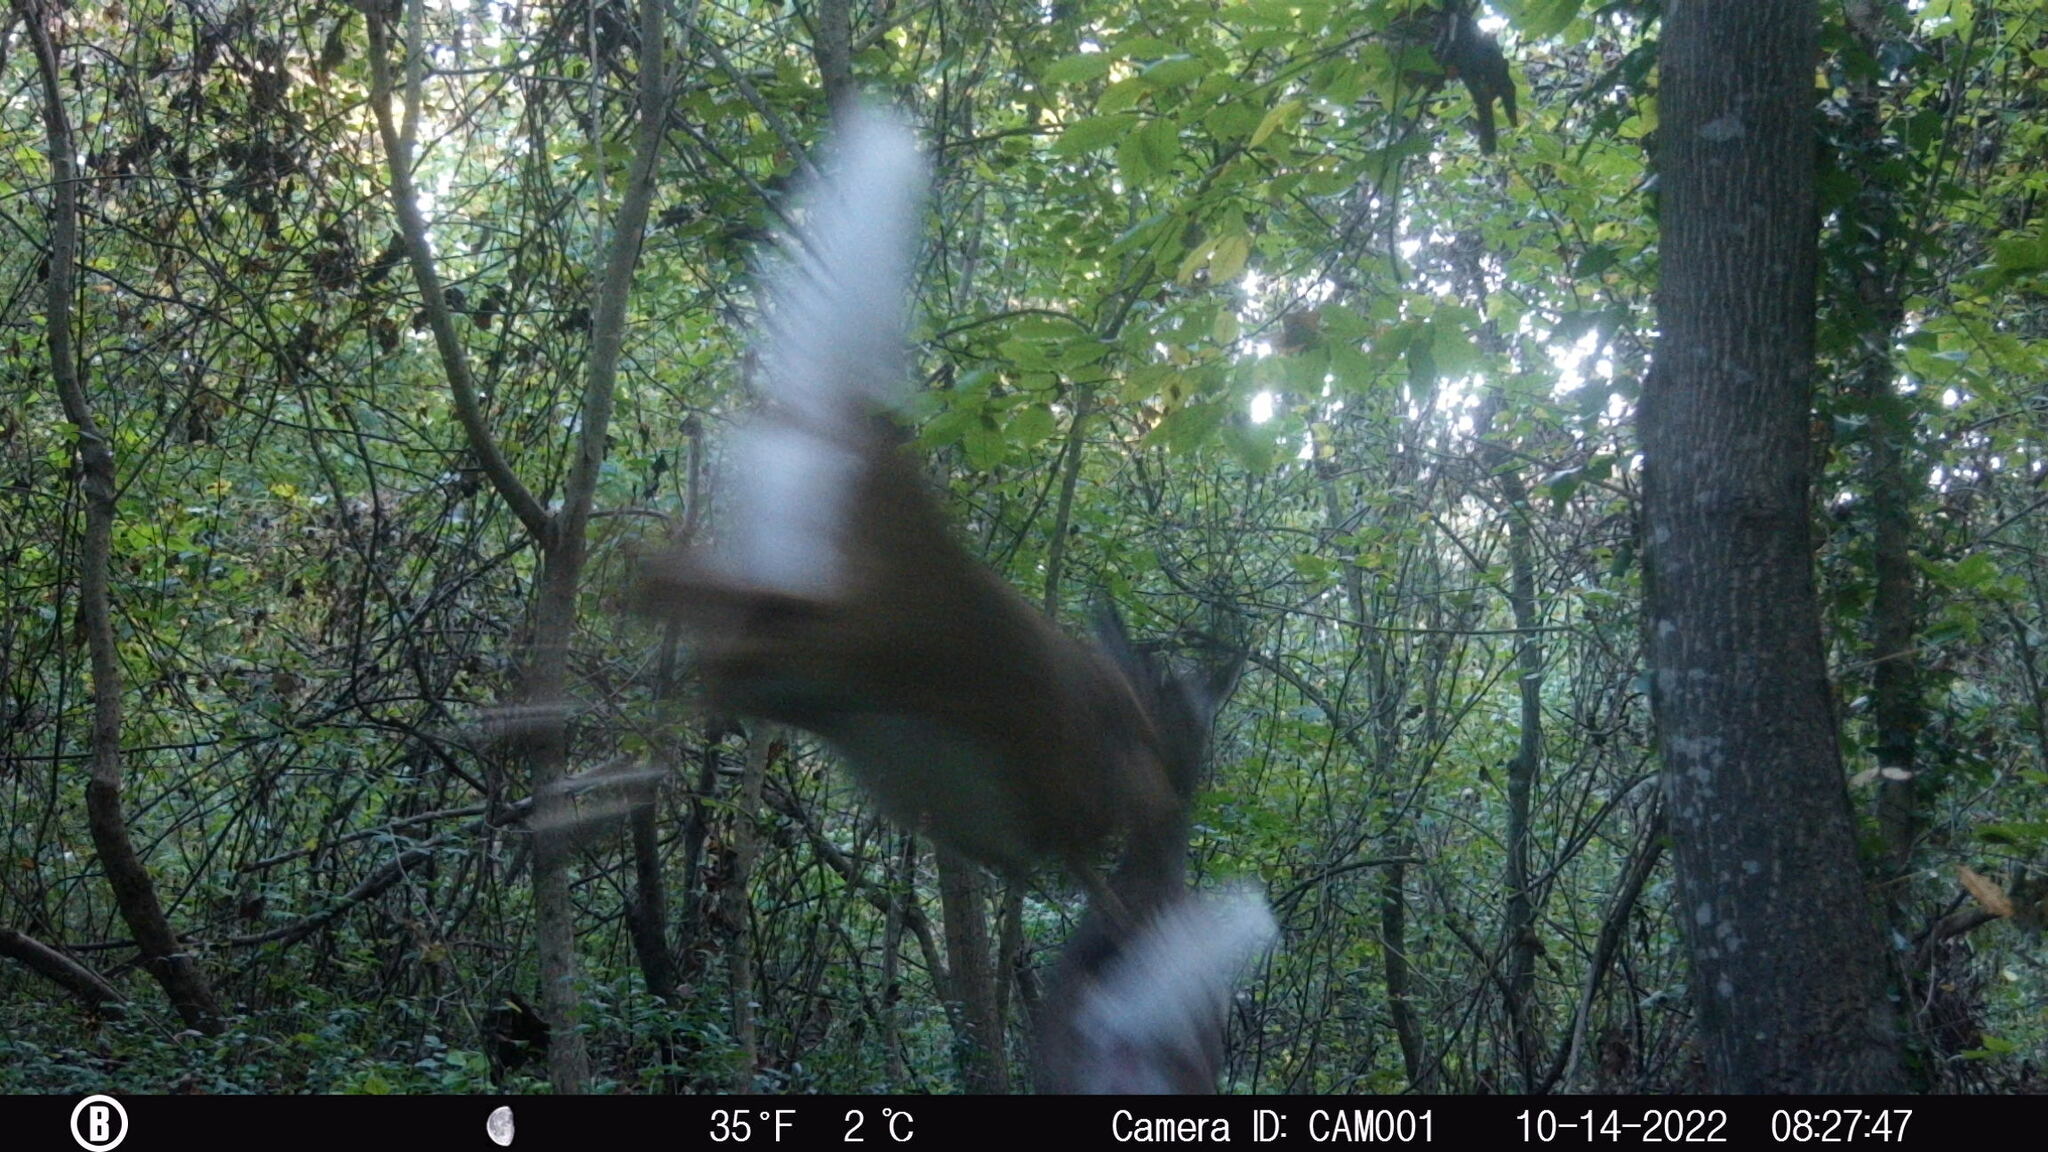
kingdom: Animalia
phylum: Chordata
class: Mammalia
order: Artiodactyla
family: Cervidae
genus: Odocoileus
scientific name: Odocoileus virginianus
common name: White-tailed deer
